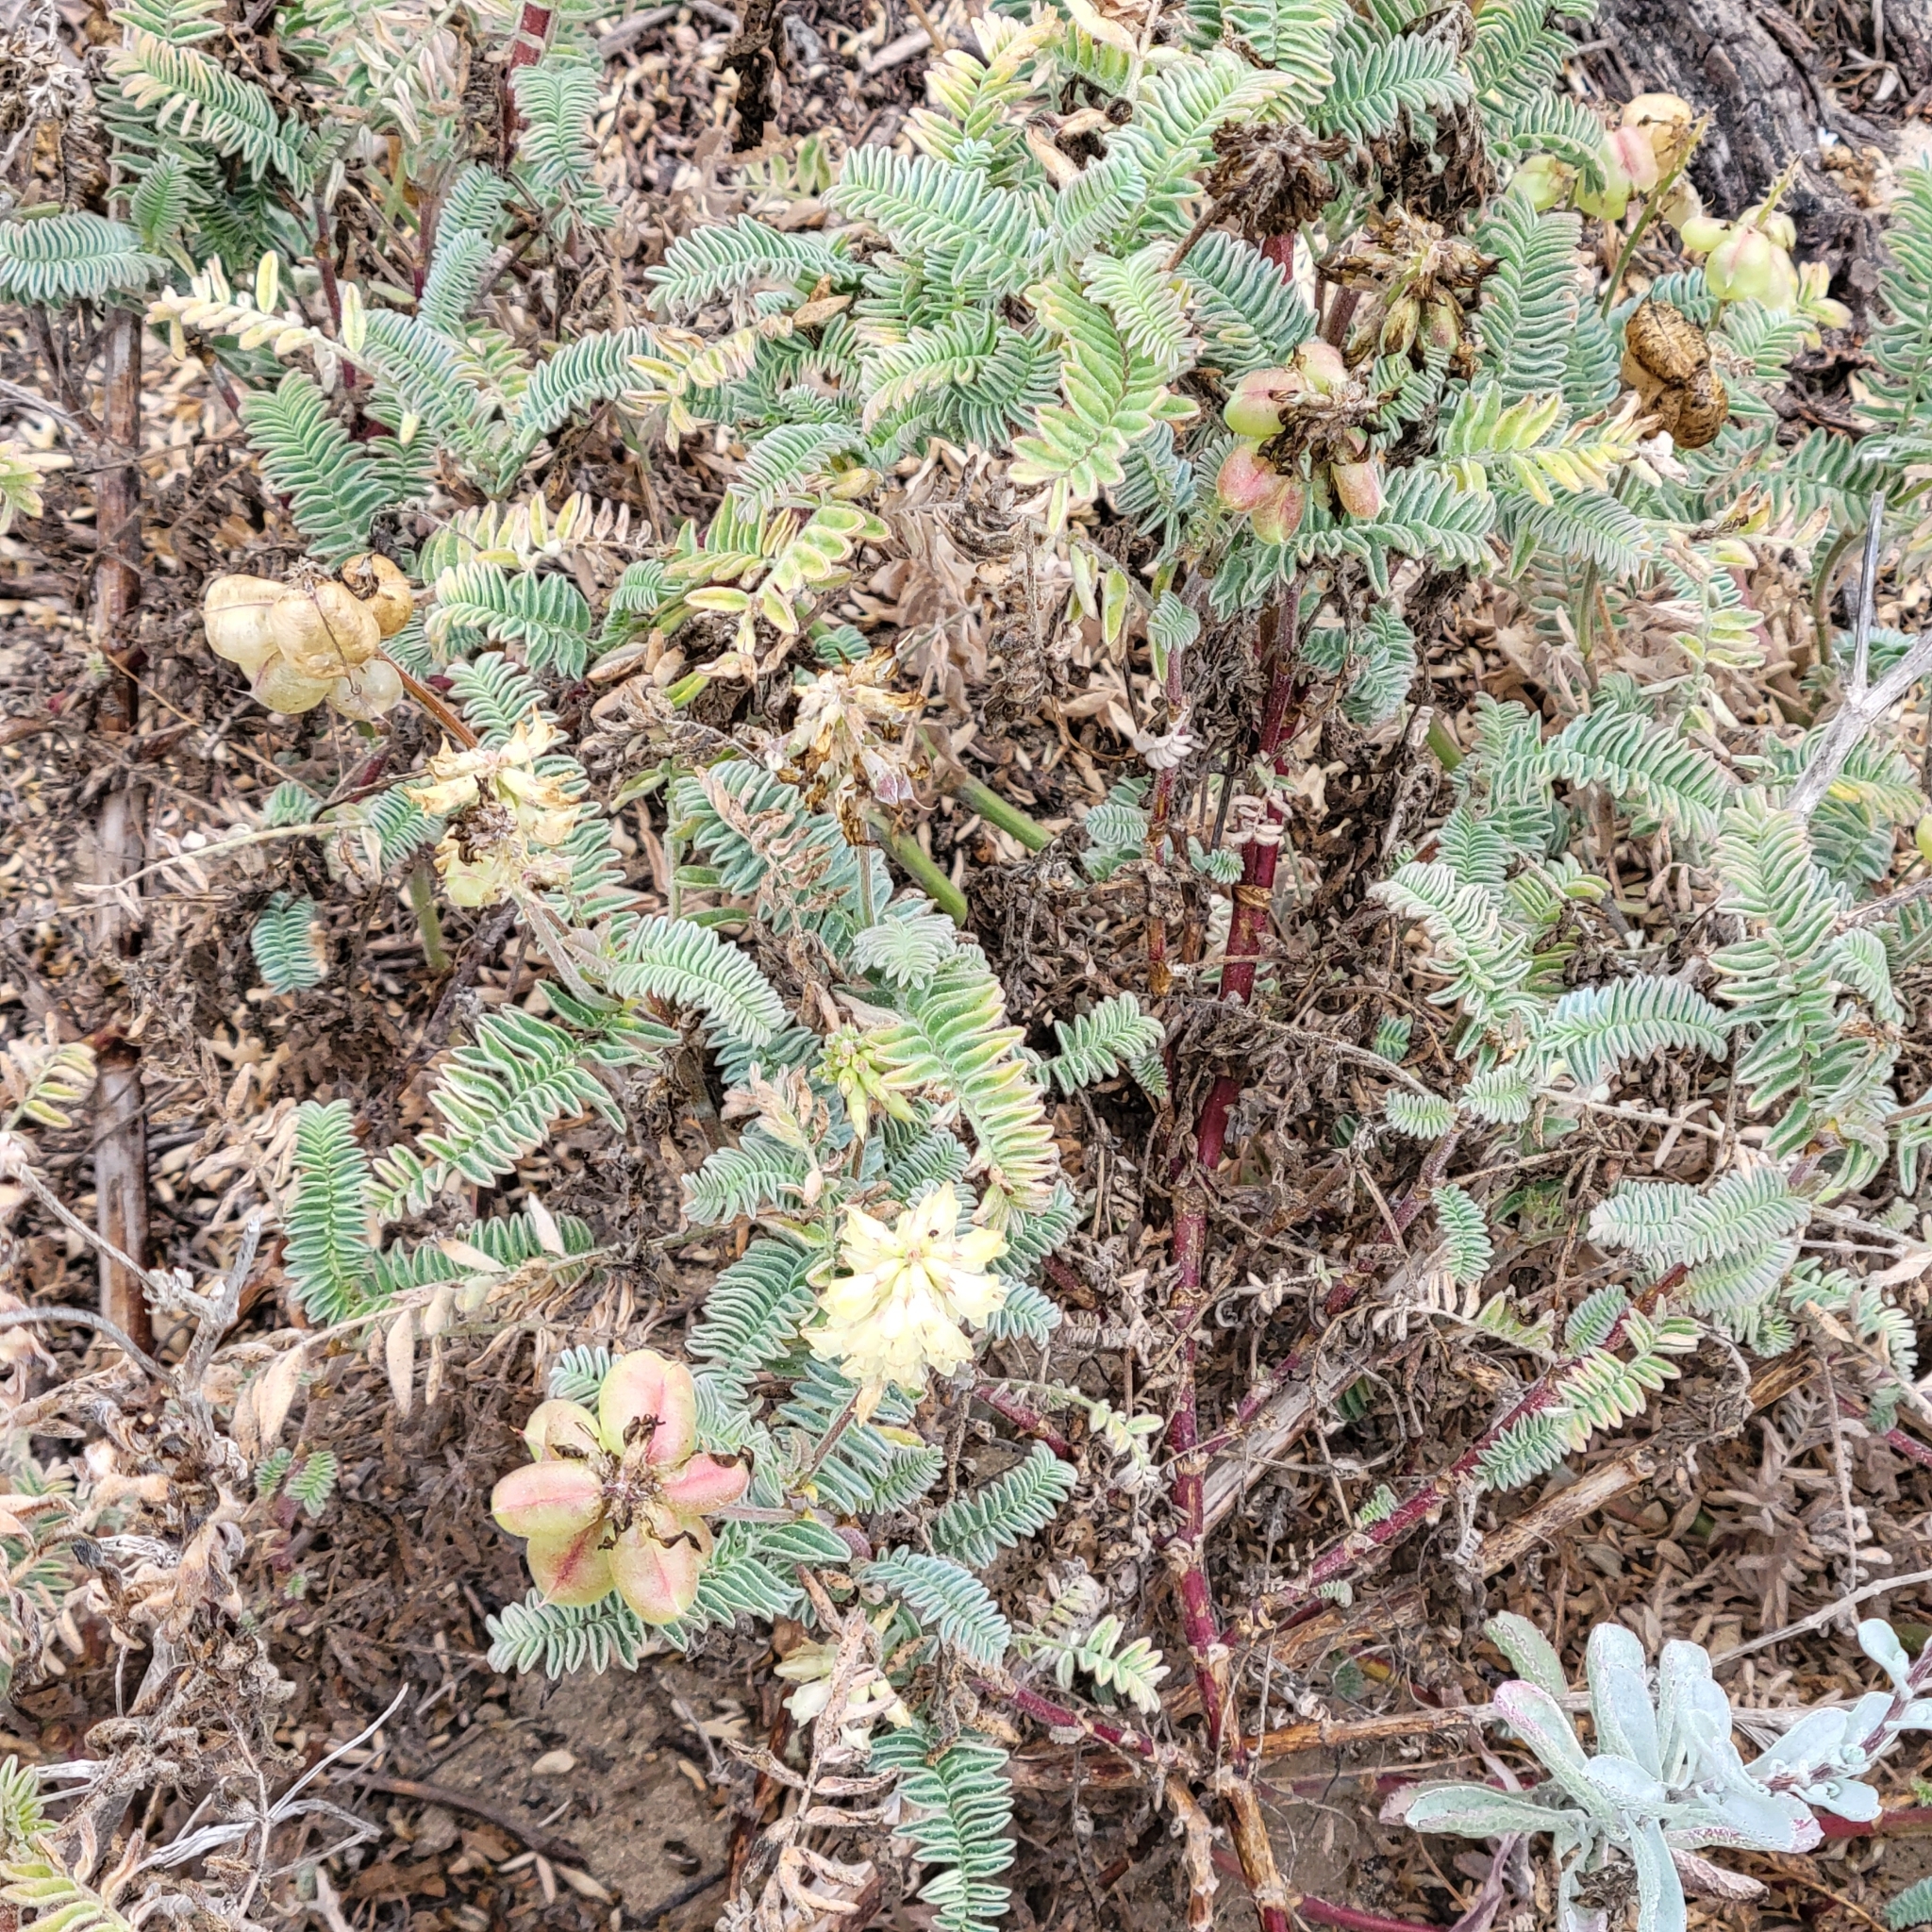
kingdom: Plantae
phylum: Tracheophyta
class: Magnoliopsida
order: Fabales
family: Fabaceae
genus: Astragalus
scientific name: Astragalus nuttallii
